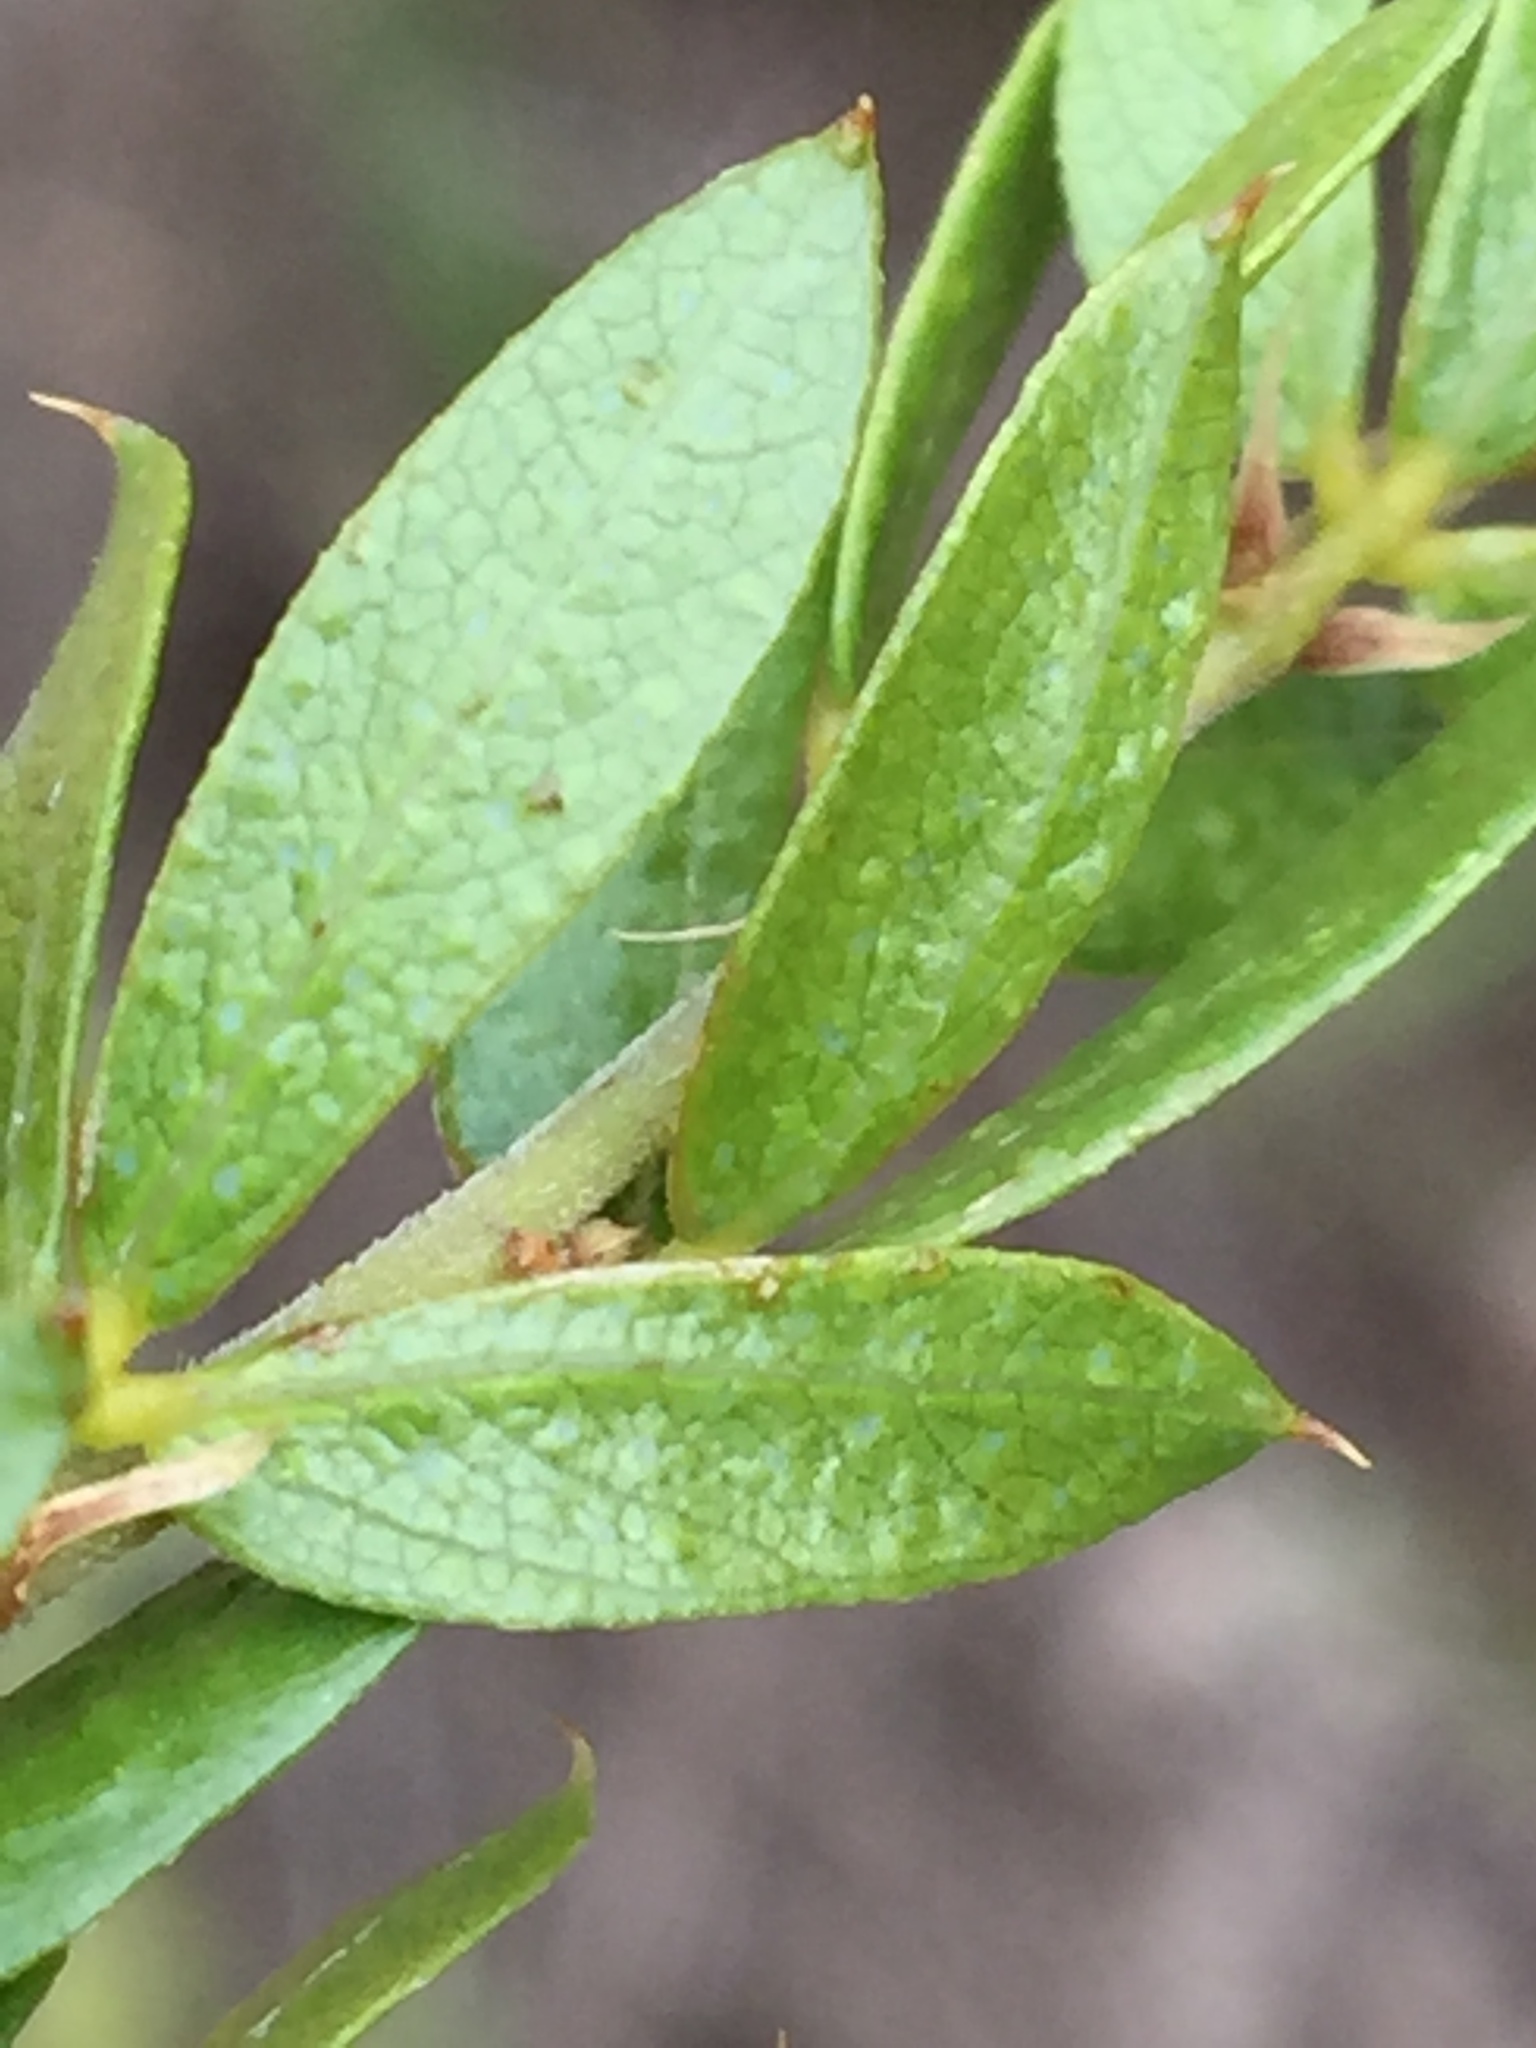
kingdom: Plantae
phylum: Tracheophyta
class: Magnoliopsida
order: Fabales
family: Fabaceae
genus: Psoralea
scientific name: Psoralea heterosepala
